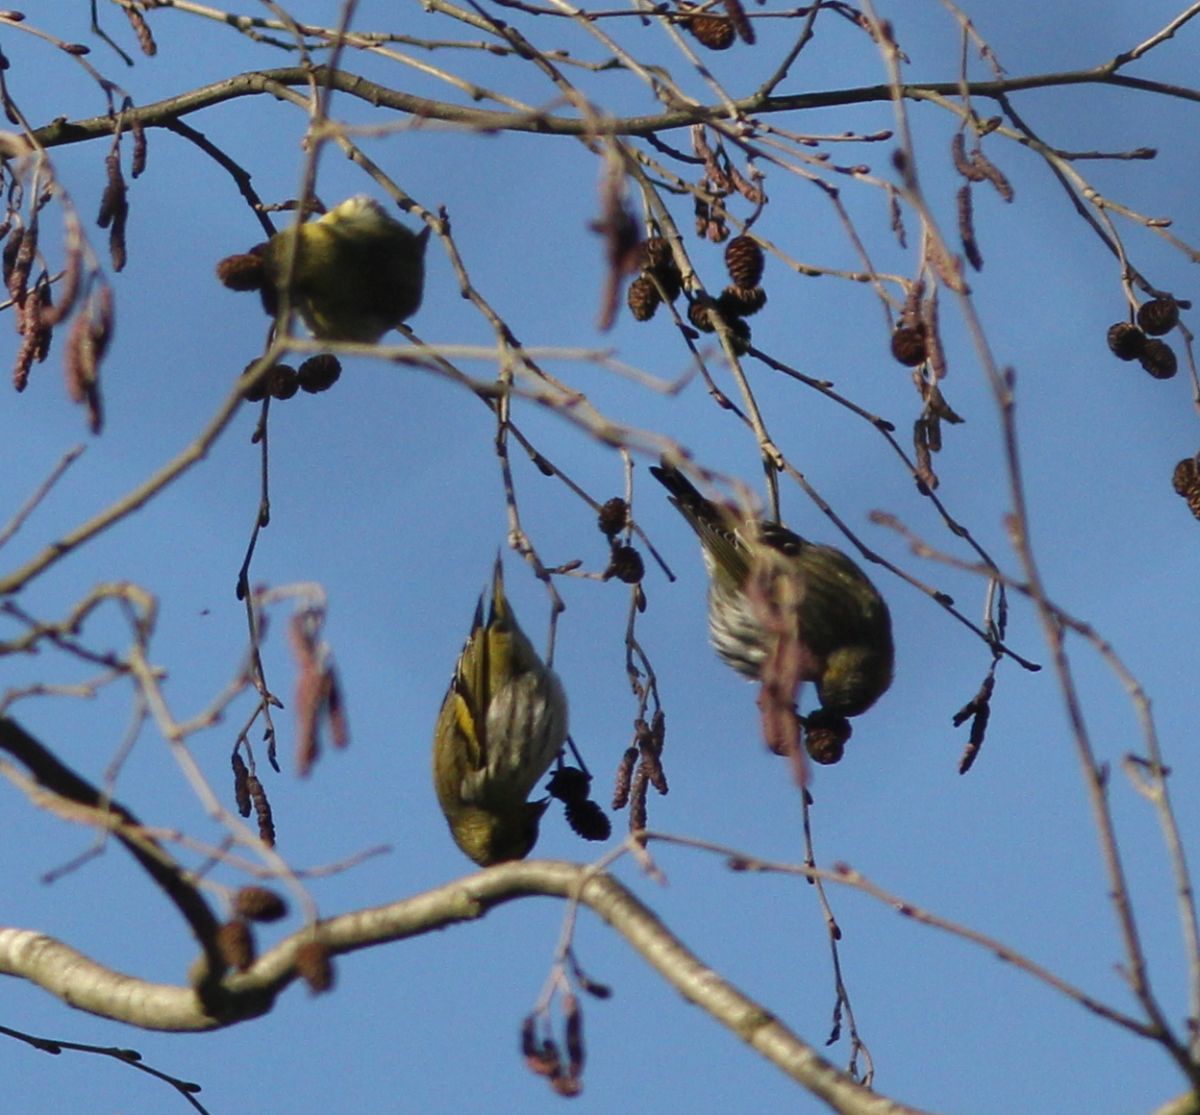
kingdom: Animalia
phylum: Chordata
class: Aves
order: Passeriformes
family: Fringillidae
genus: Spinus
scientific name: Spinus spinus
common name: Eurasian siskin
